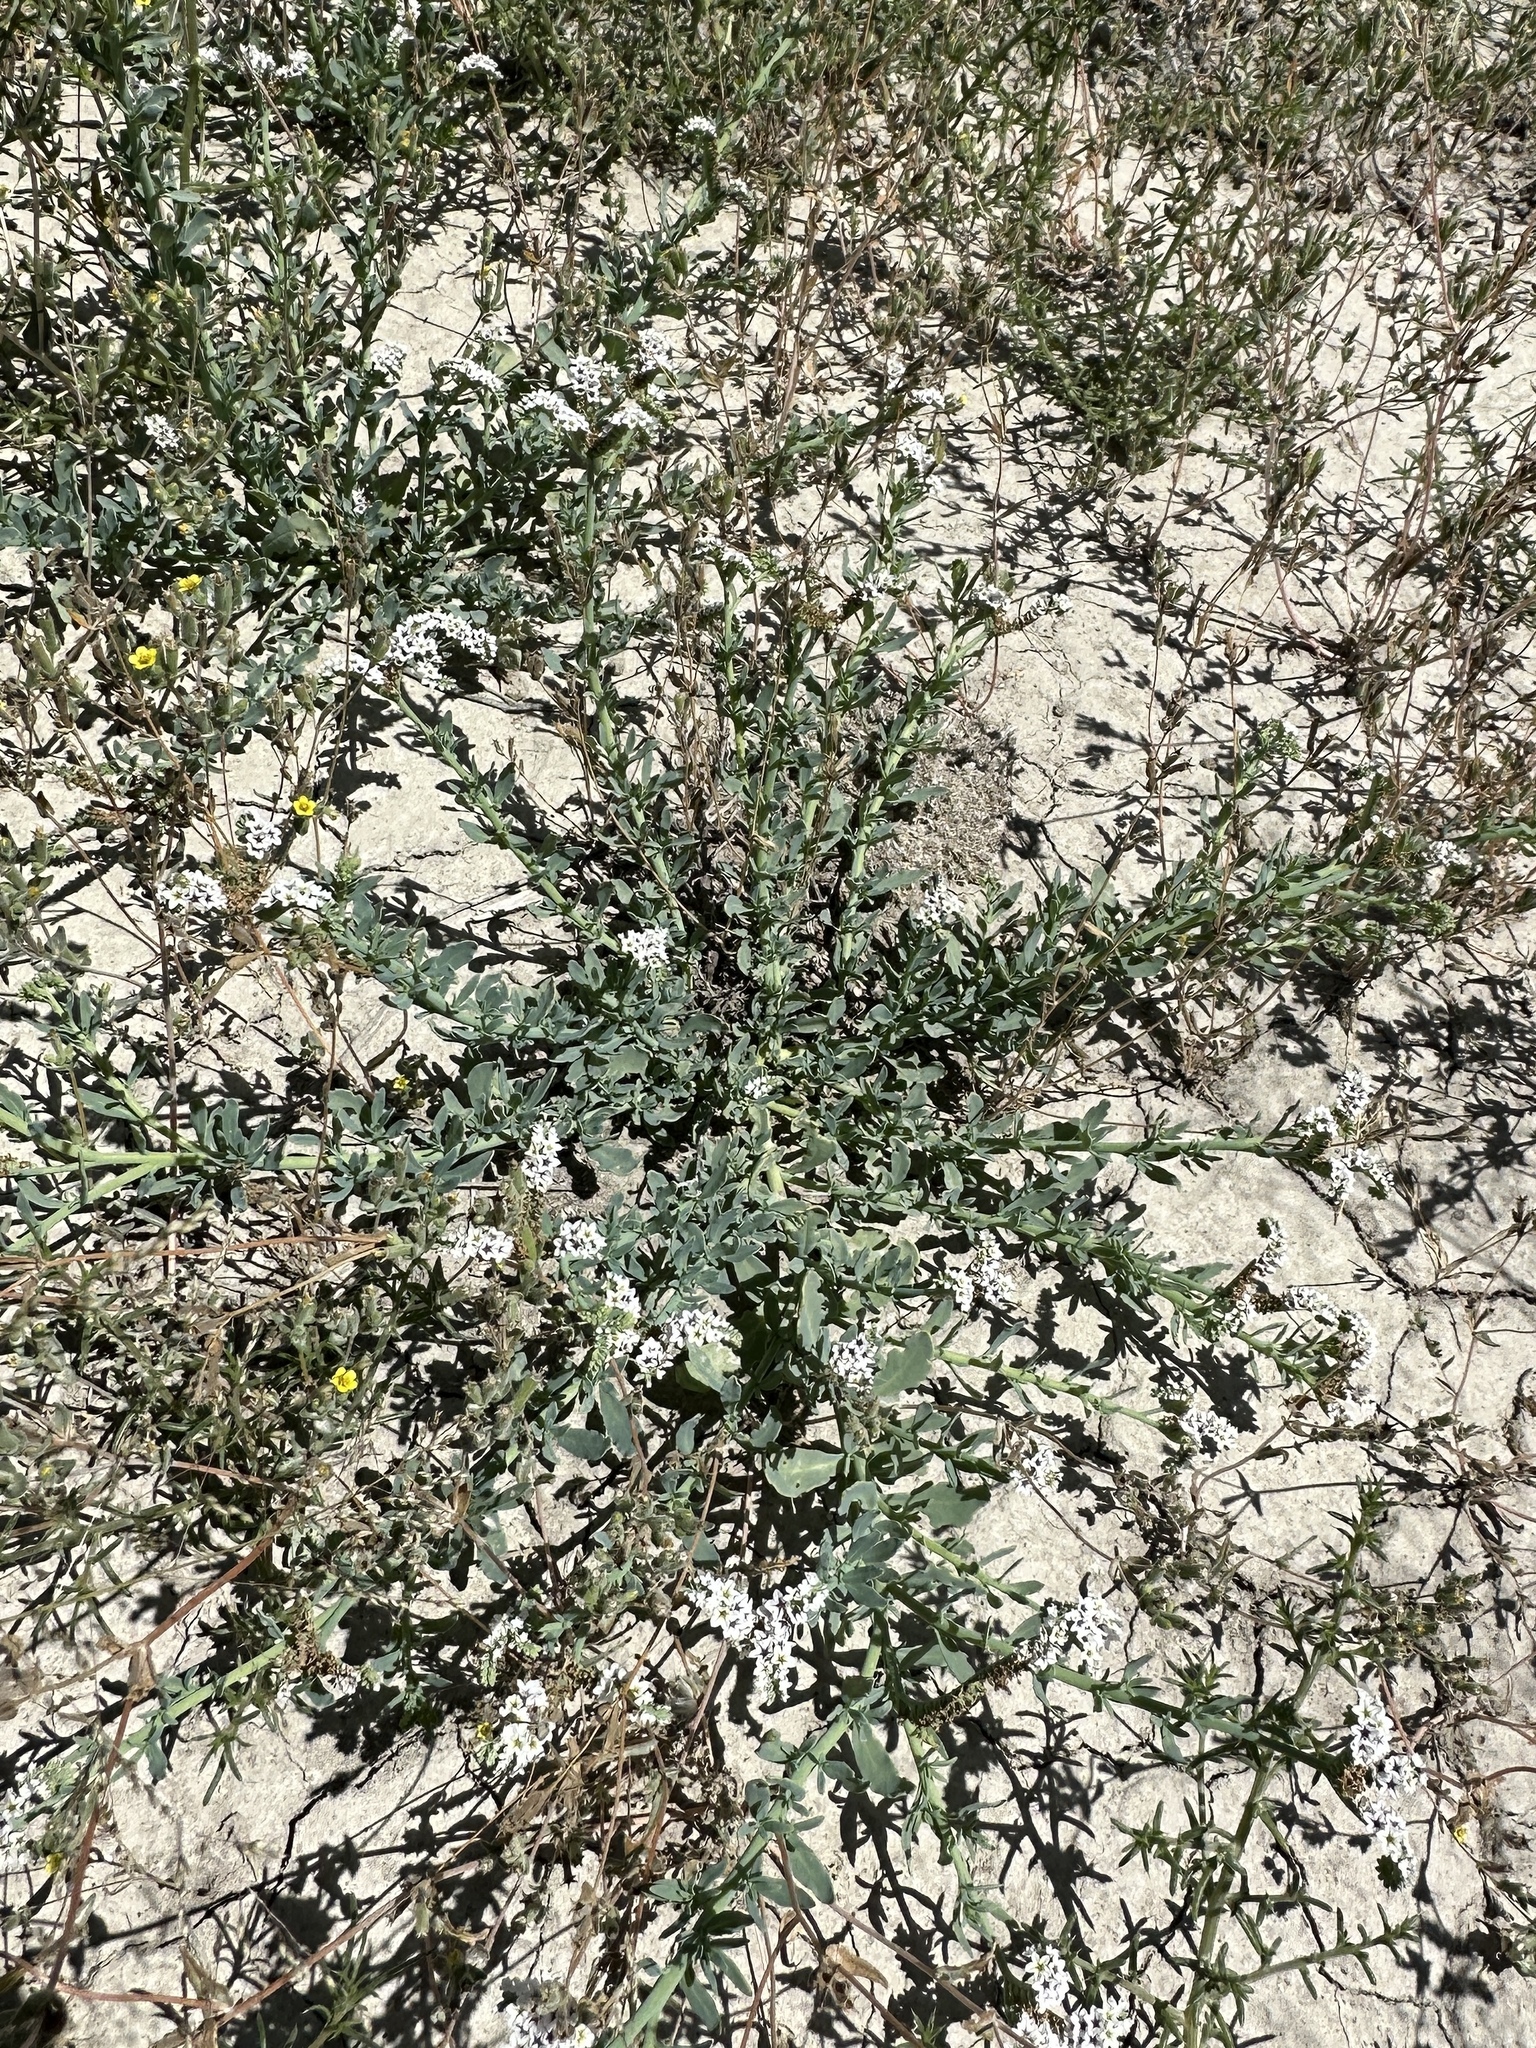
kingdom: Plantae
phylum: Tracheophyta
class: Magnoliopsida
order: Boraginales
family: Heliotropiaceae
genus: Heliotropium
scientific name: Heliotropium curassavicum
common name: Seaside heliotrope
